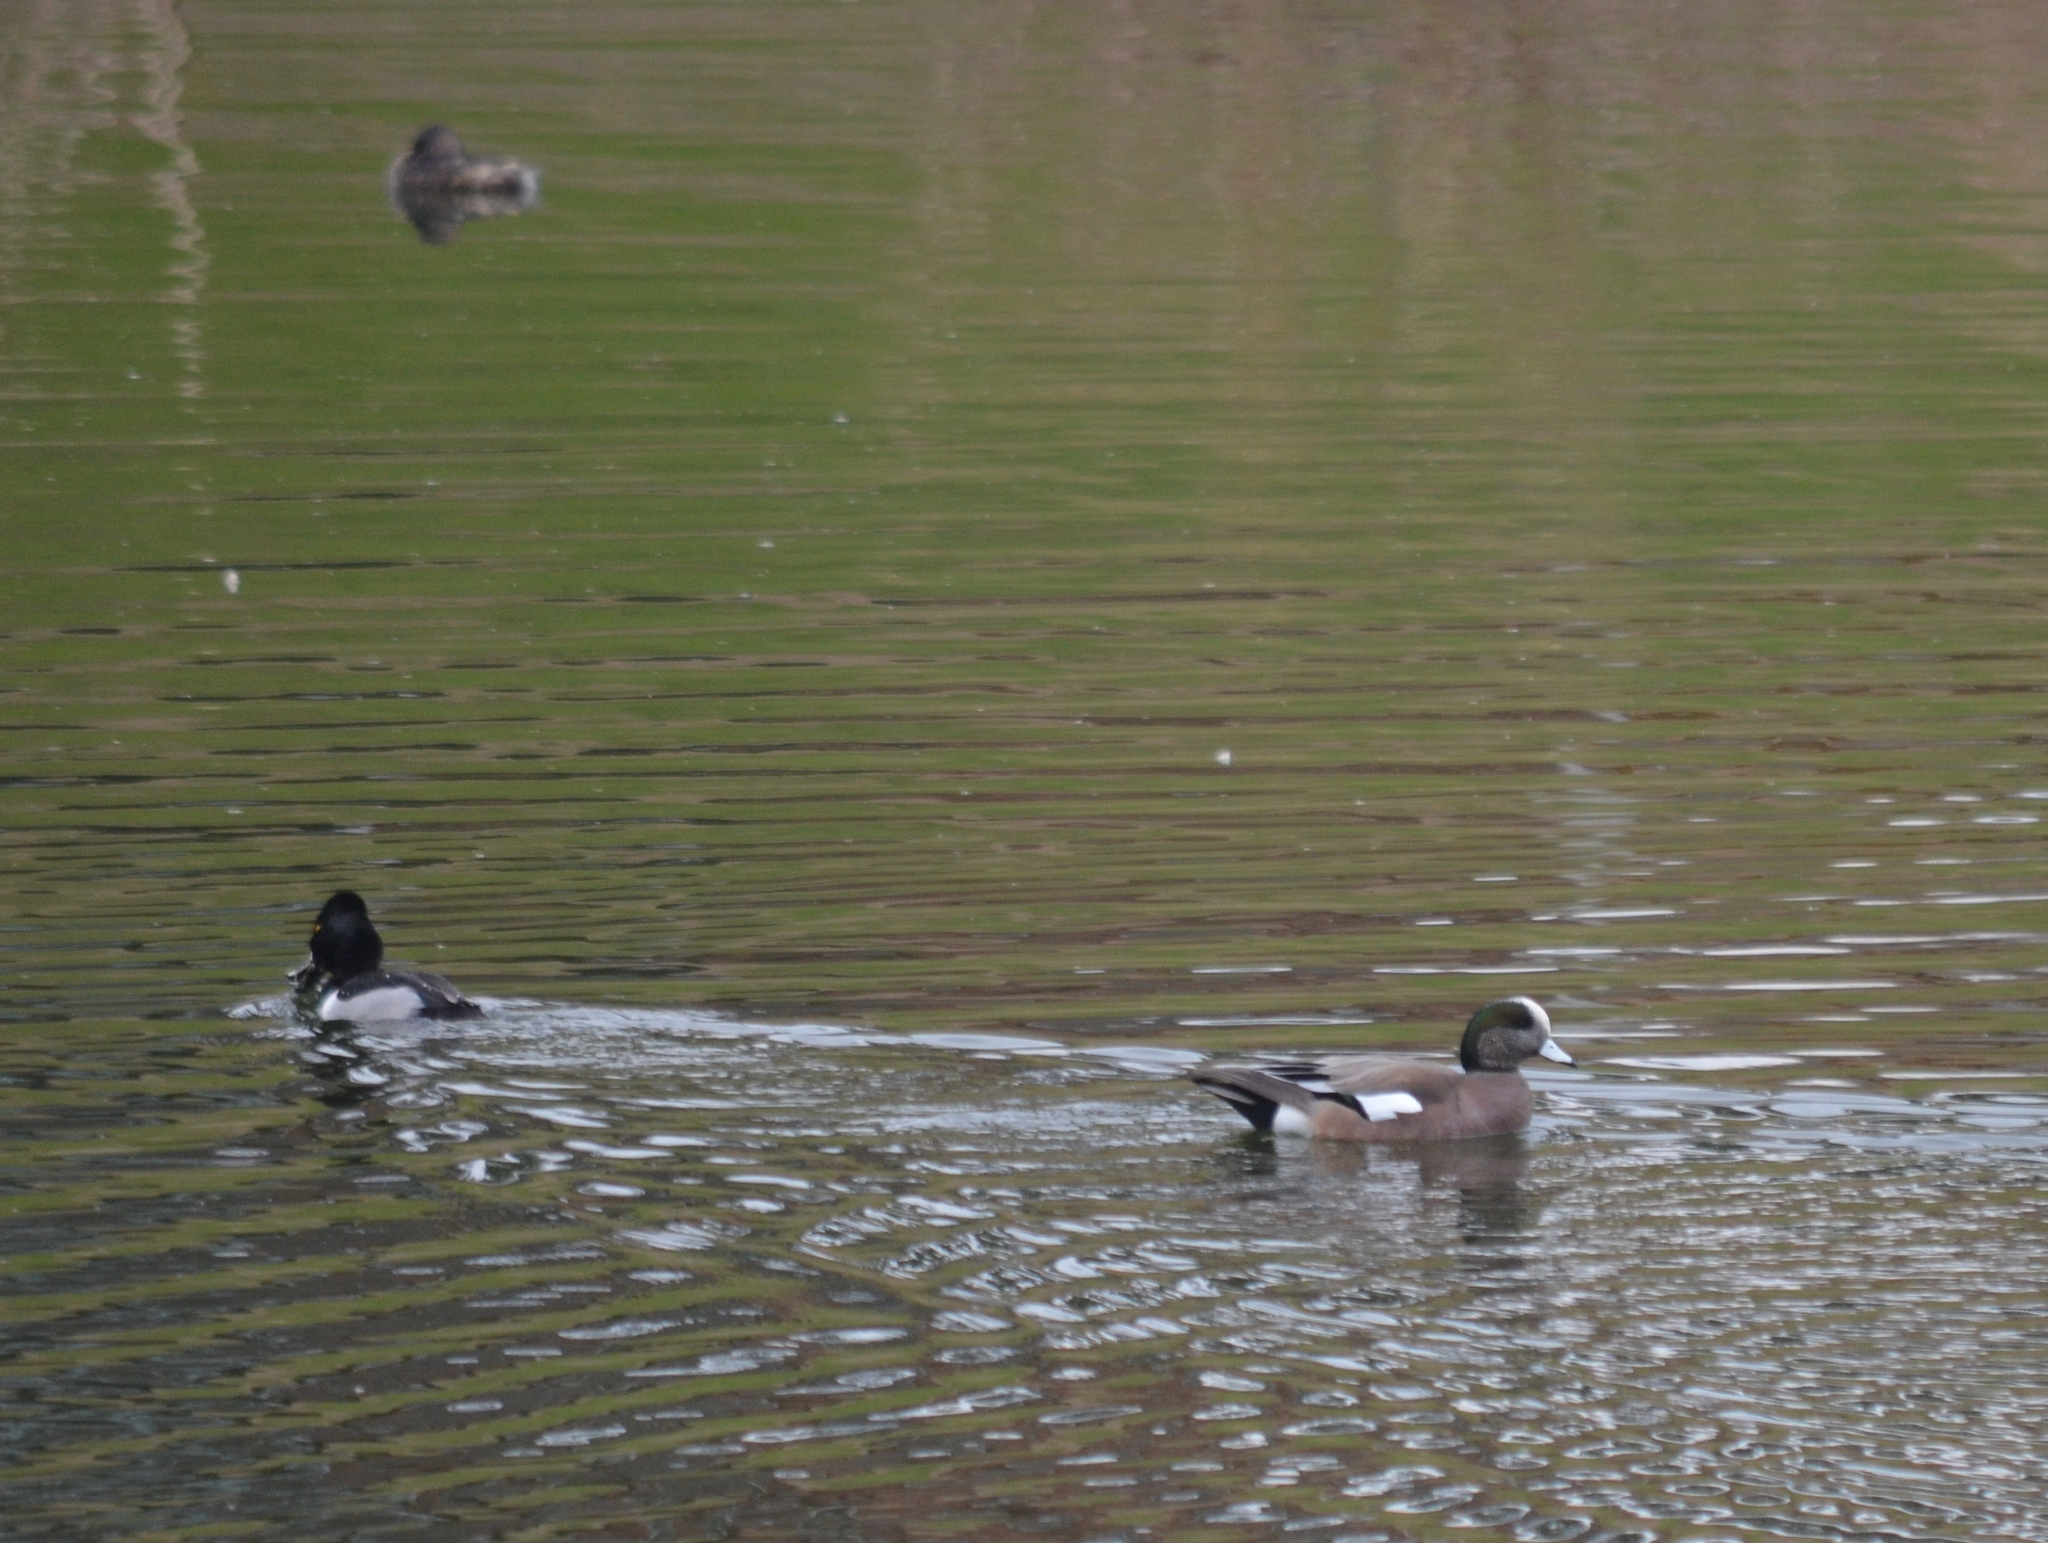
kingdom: Animalia
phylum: Chordata
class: Aves
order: Anseriformes
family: Anatidae
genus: Mareca
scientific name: Mareca americana
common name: American wigeon
